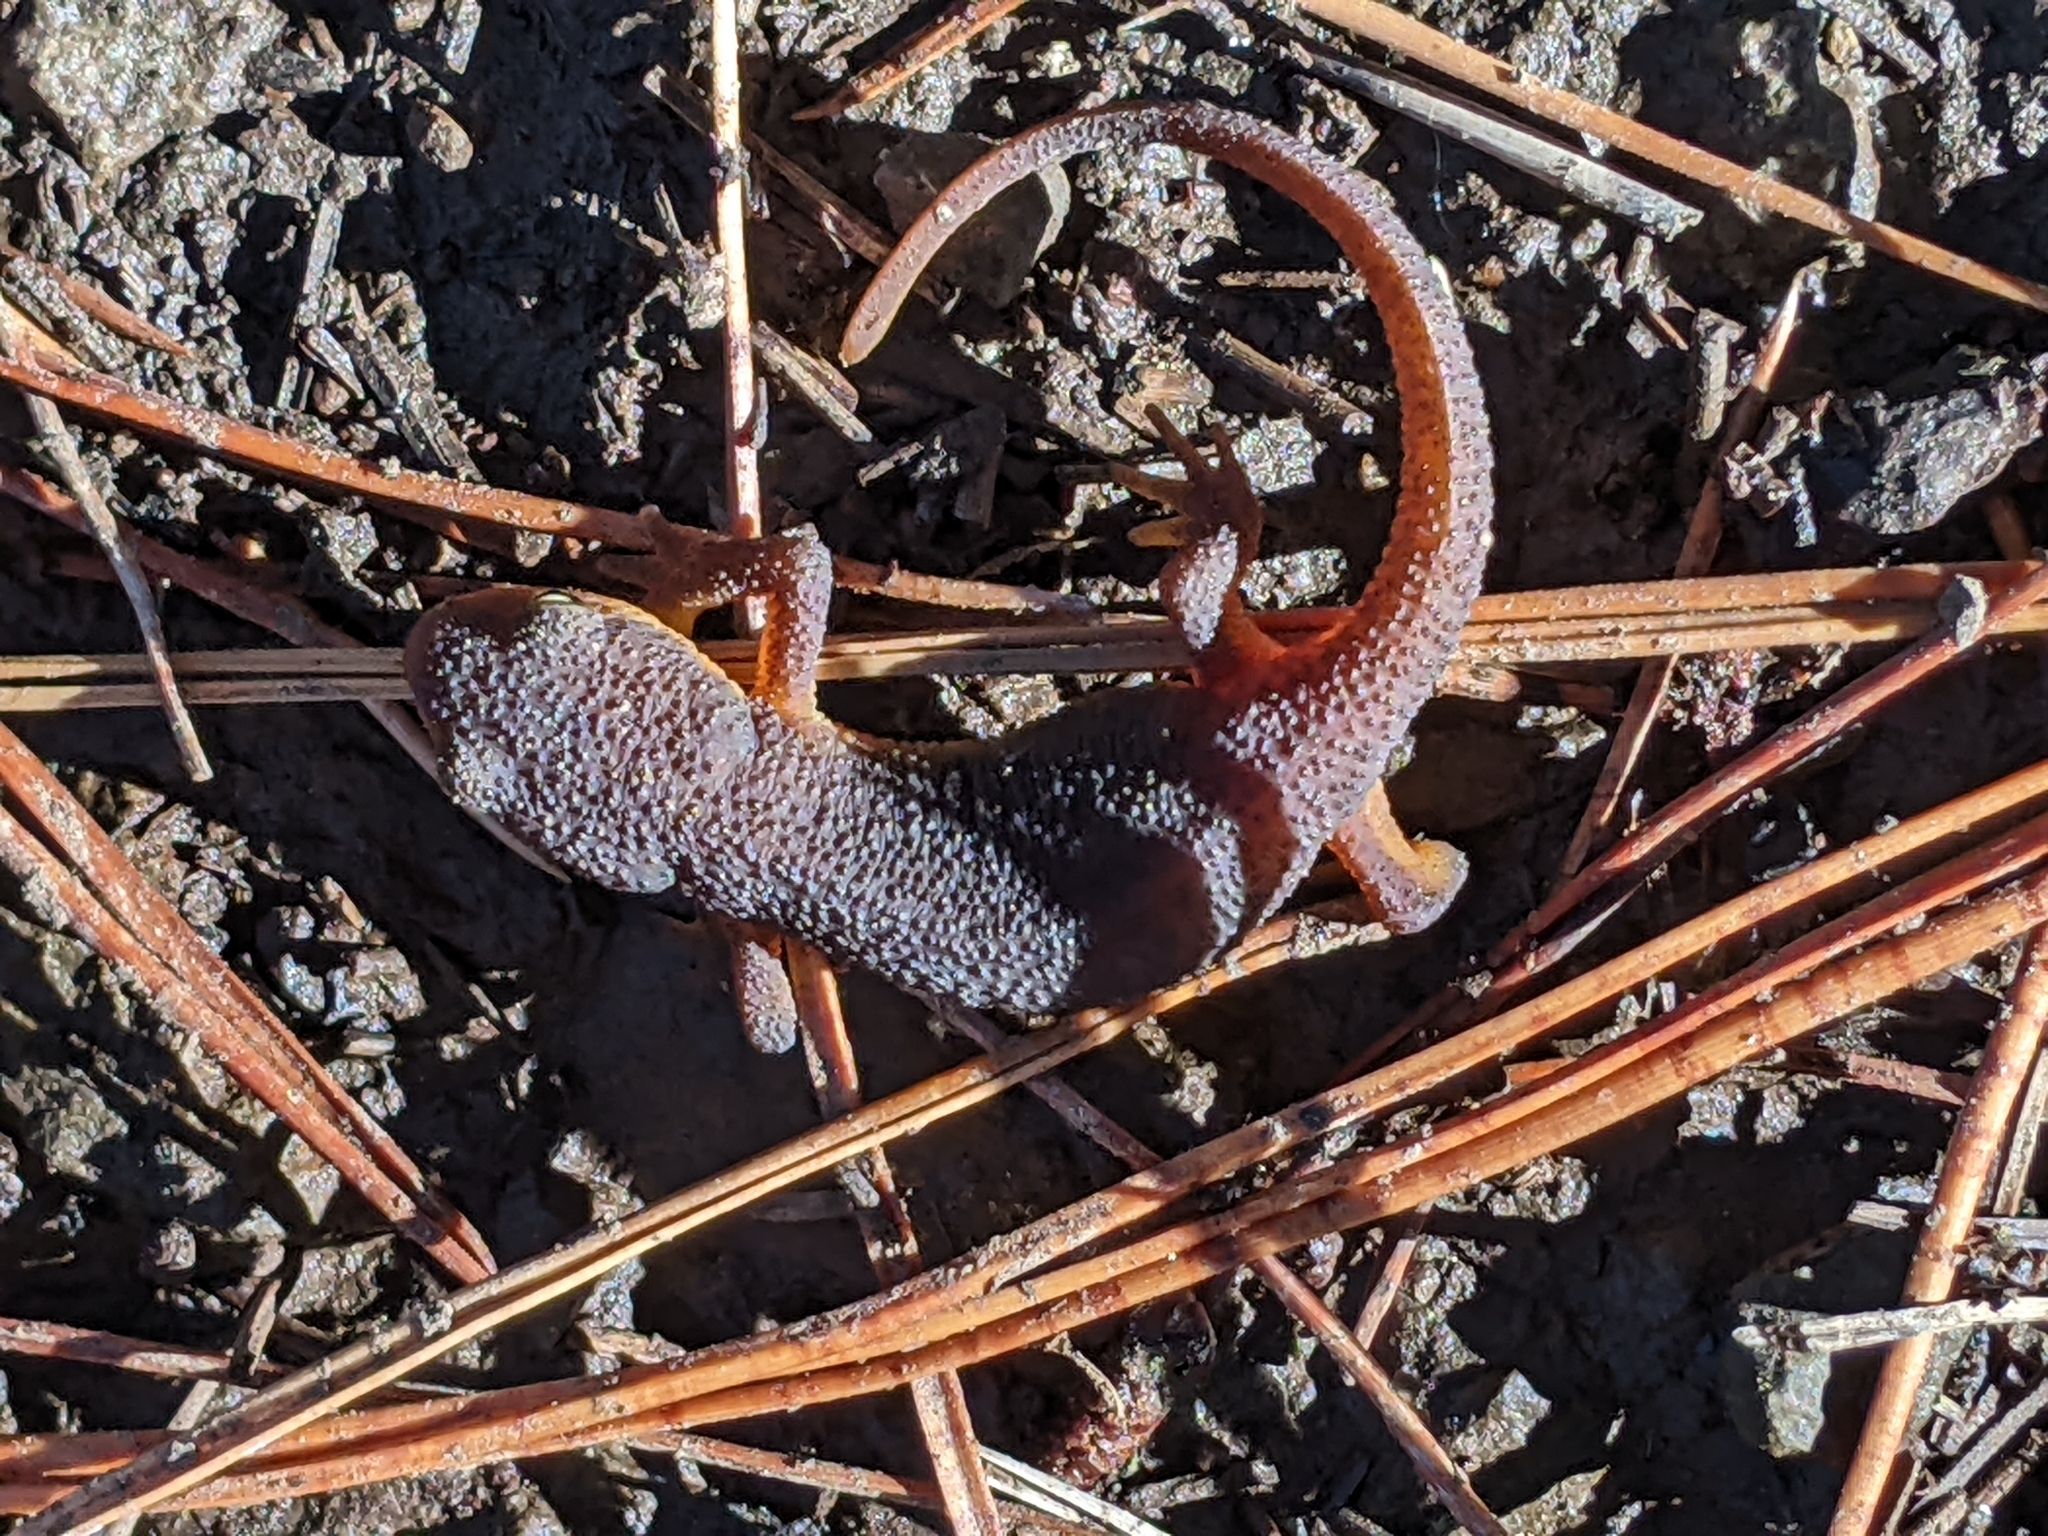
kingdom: Animalia
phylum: Chordata
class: Amphibia
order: Caudata
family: Salamandridae
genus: Taricha
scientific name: Taricha torosa
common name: California newt
